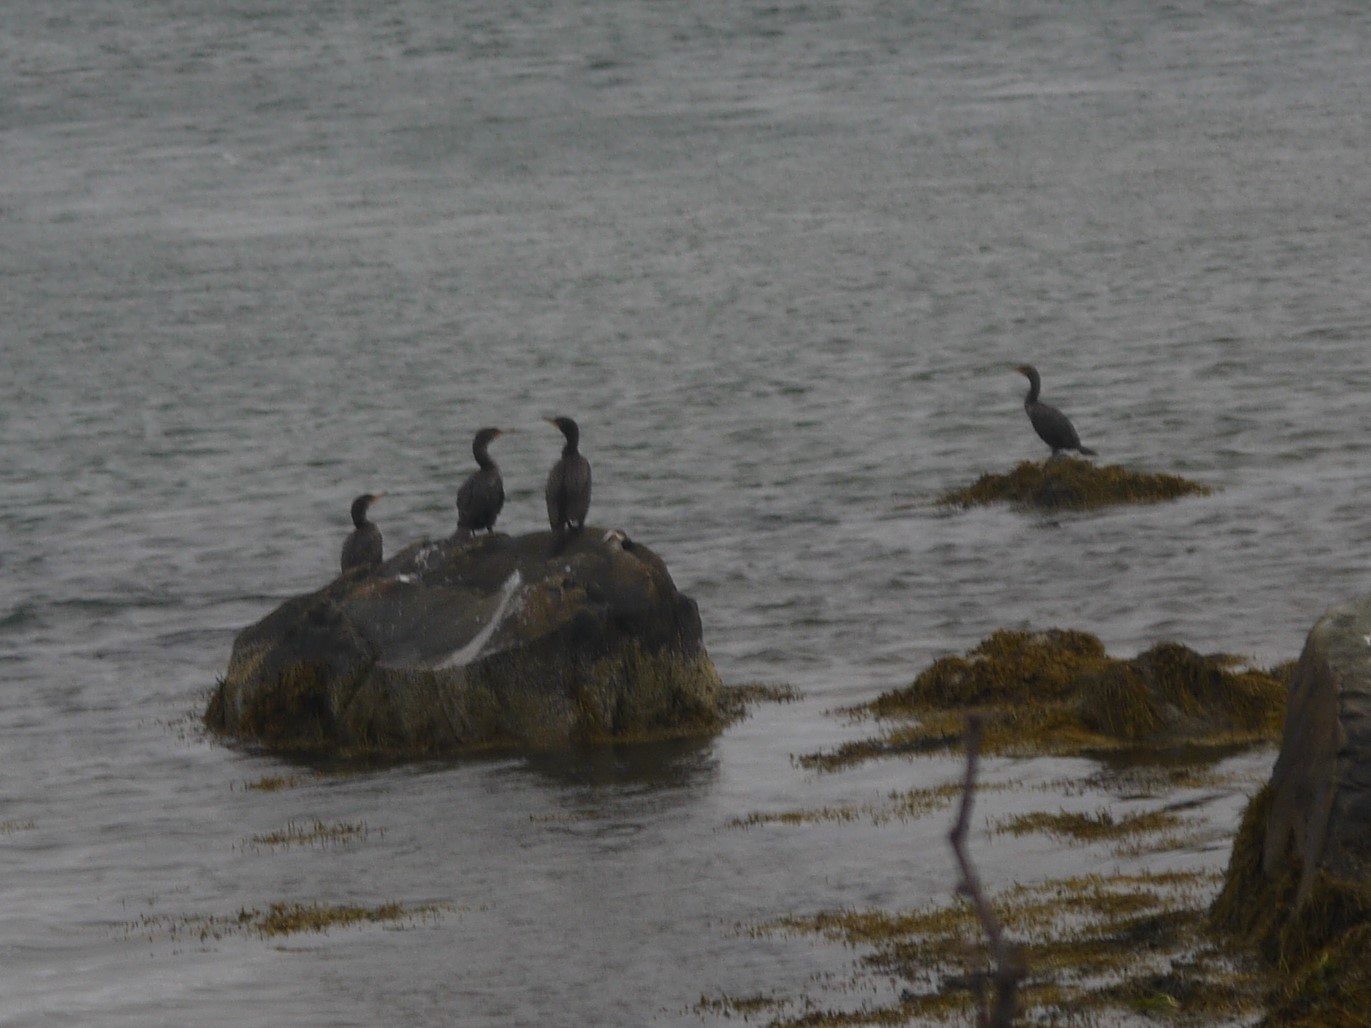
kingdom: Animalia
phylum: Chordata
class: Aves
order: Suliformes
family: Phalacrocoracidae
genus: Phalacrocorax
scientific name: Phalacrocorax auritus
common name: Double-crested cormorant
